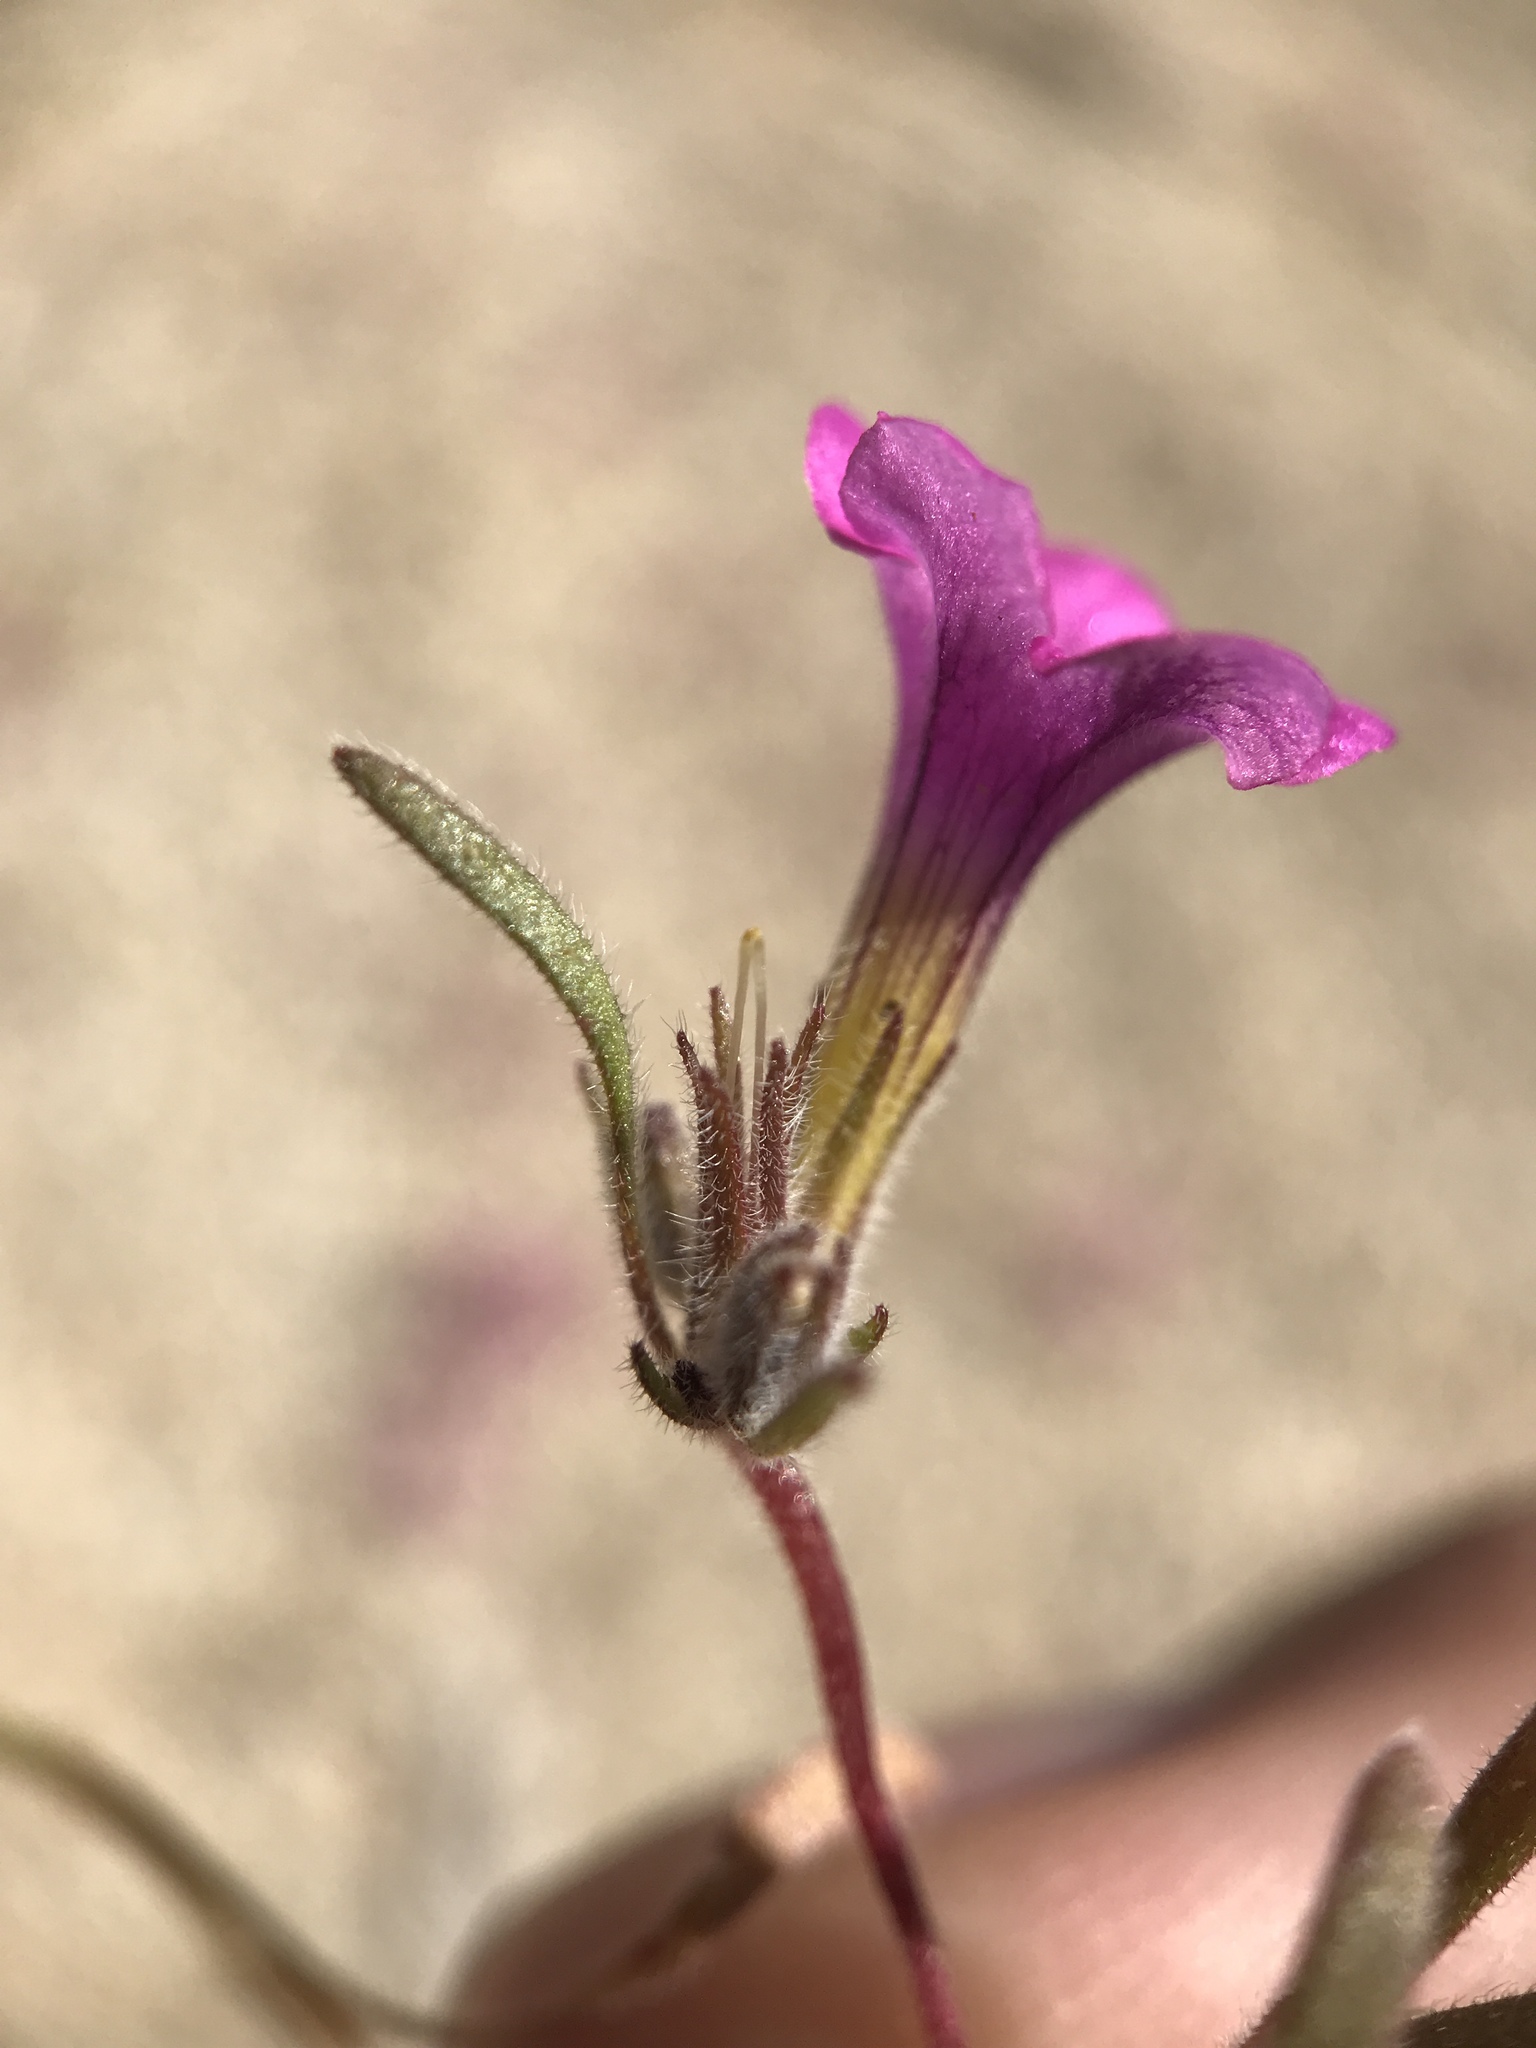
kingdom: Plantae
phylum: Tracheophyta
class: Magnoliopsida
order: Boraginales
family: Namaceae
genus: Nama
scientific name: Nama demissa
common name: Leafy nama
